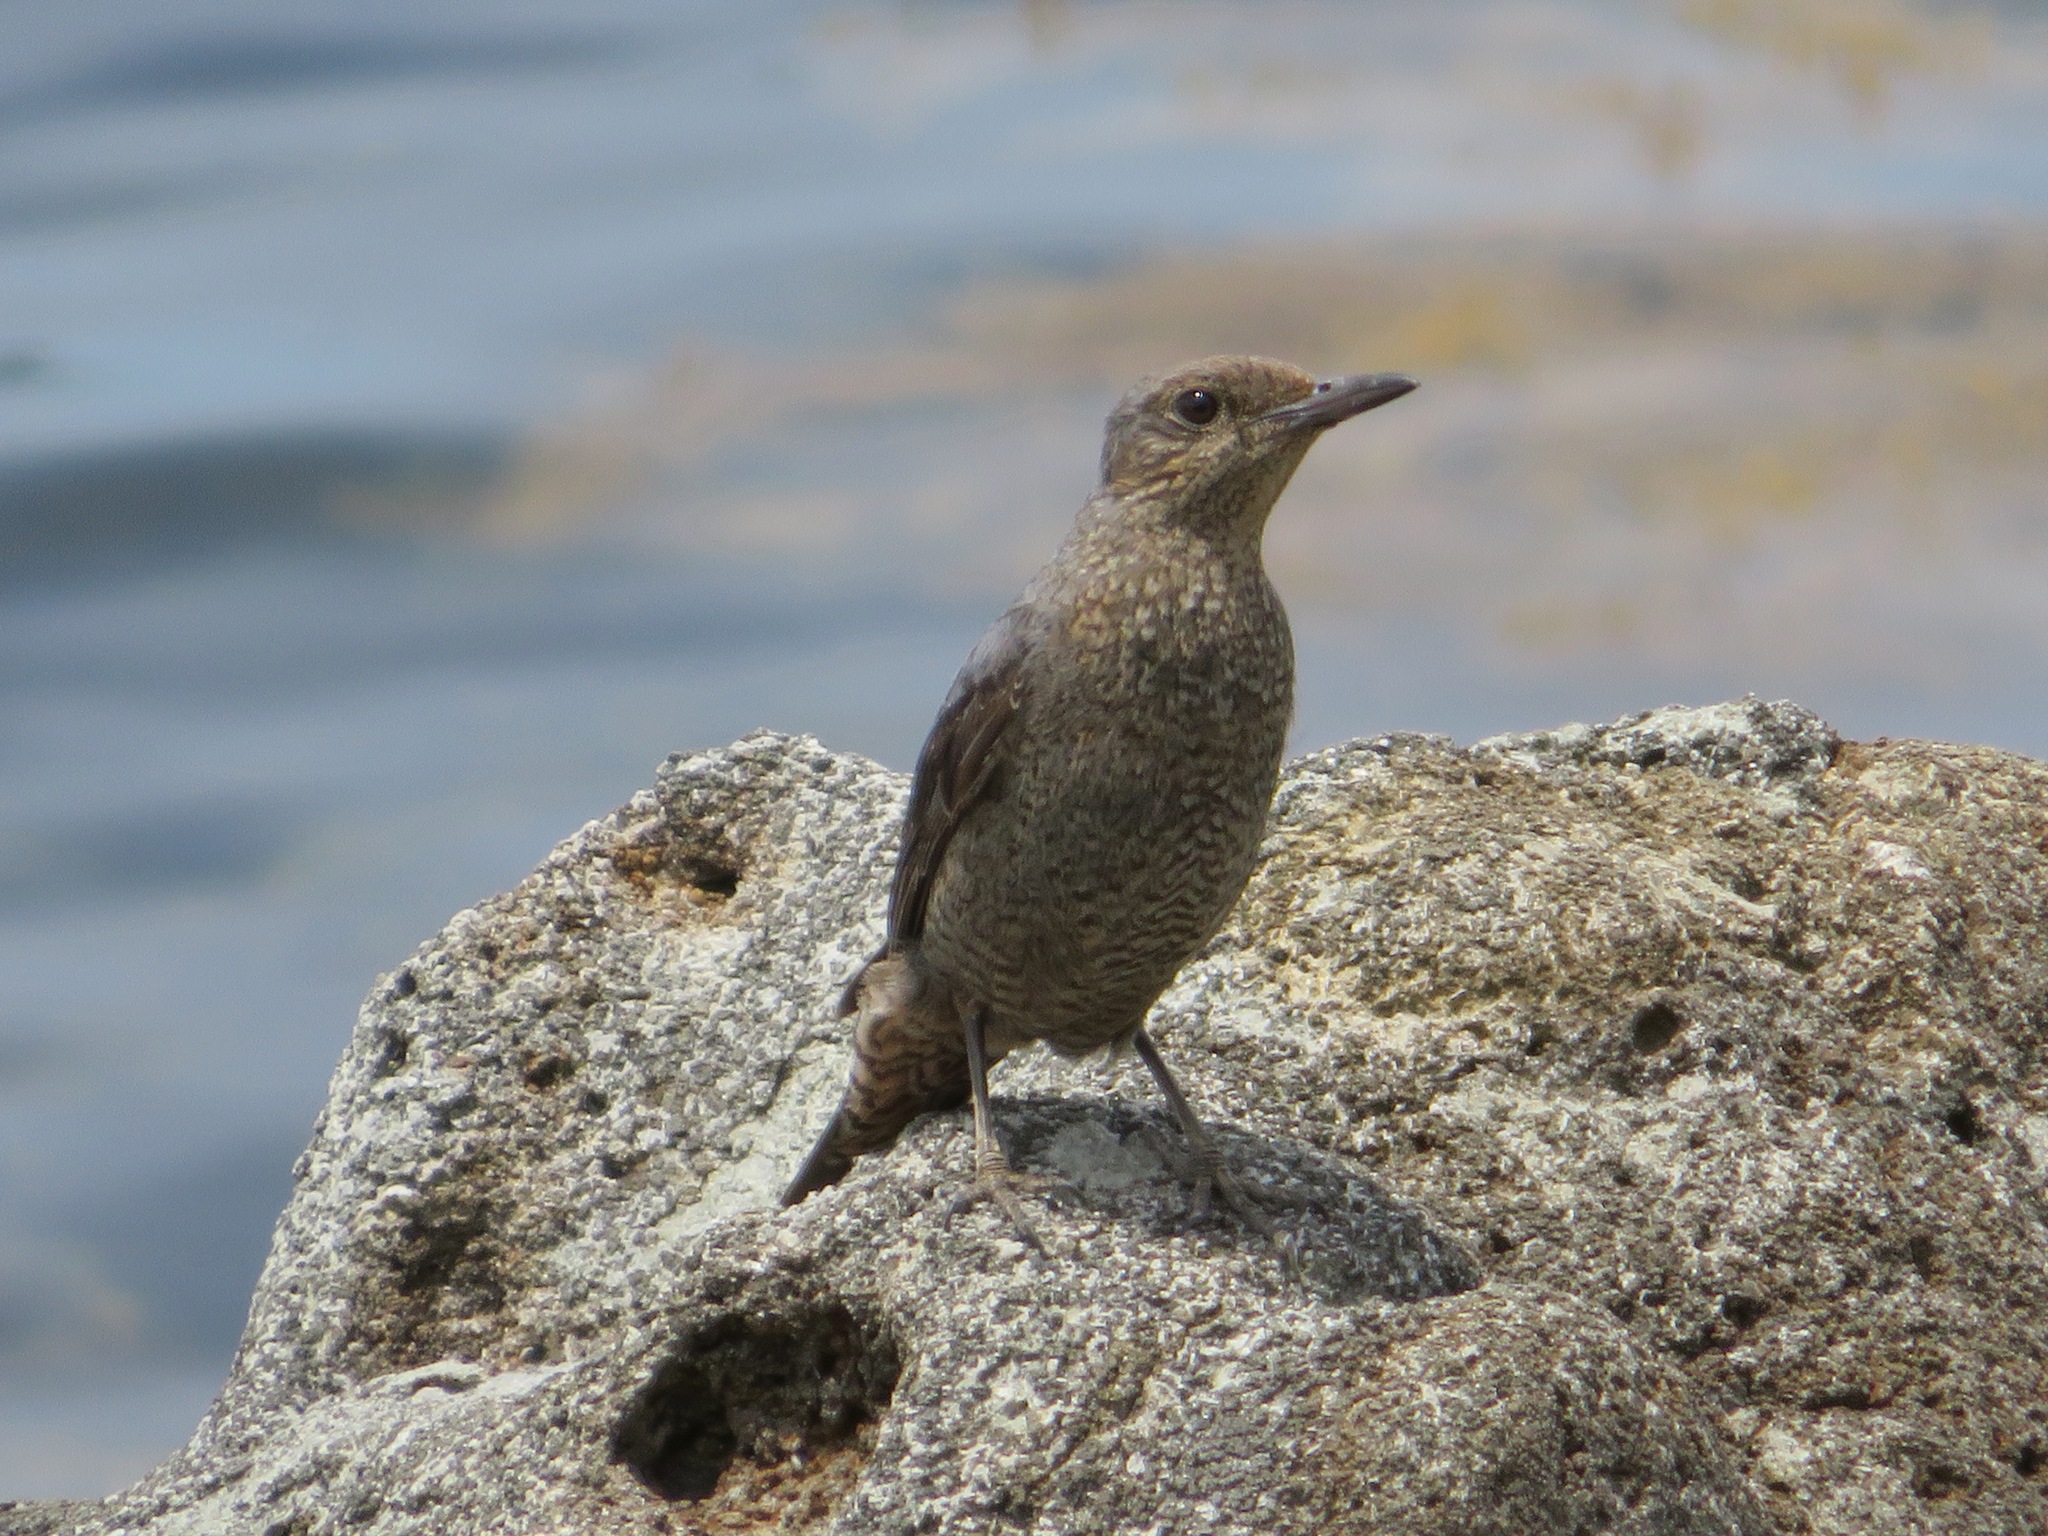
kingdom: Animalia
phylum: Chordata
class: Aves
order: Passeriformes
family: Muscicapidae
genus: Monticola
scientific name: Monticola solitarius
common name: Blue rock thrush
